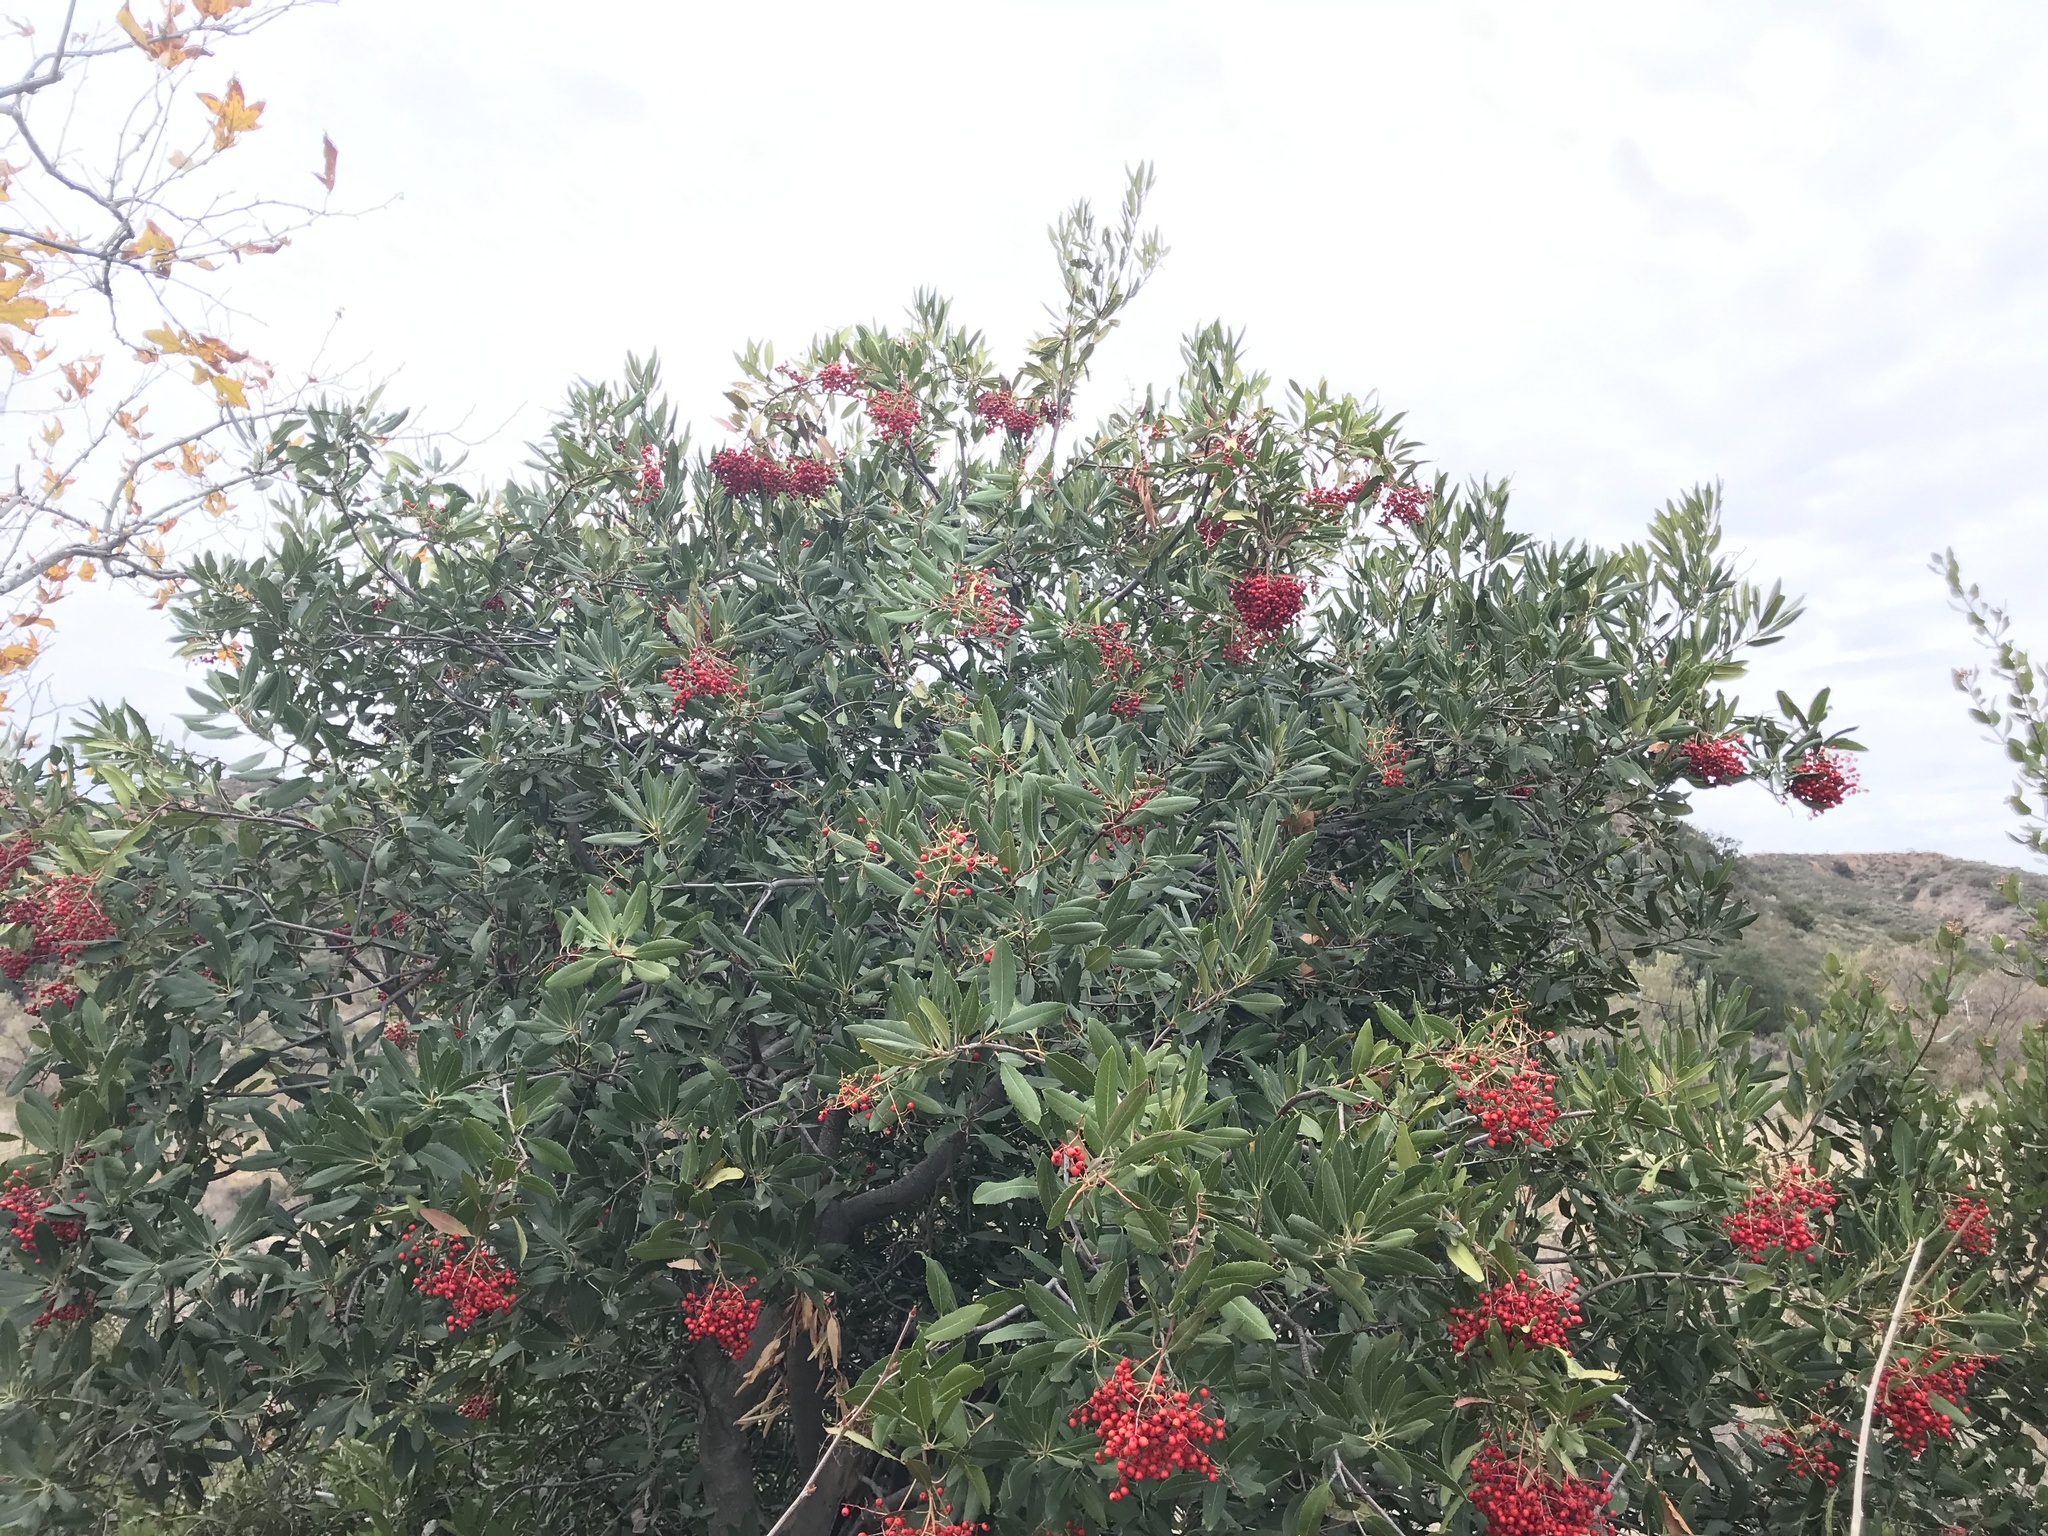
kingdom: Plantae
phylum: Tracheophyta
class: Magnoliopsida
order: Rosales
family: Rosaceae
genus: Heteromeles
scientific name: Heteromeles arbutifolia
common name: California-holly
